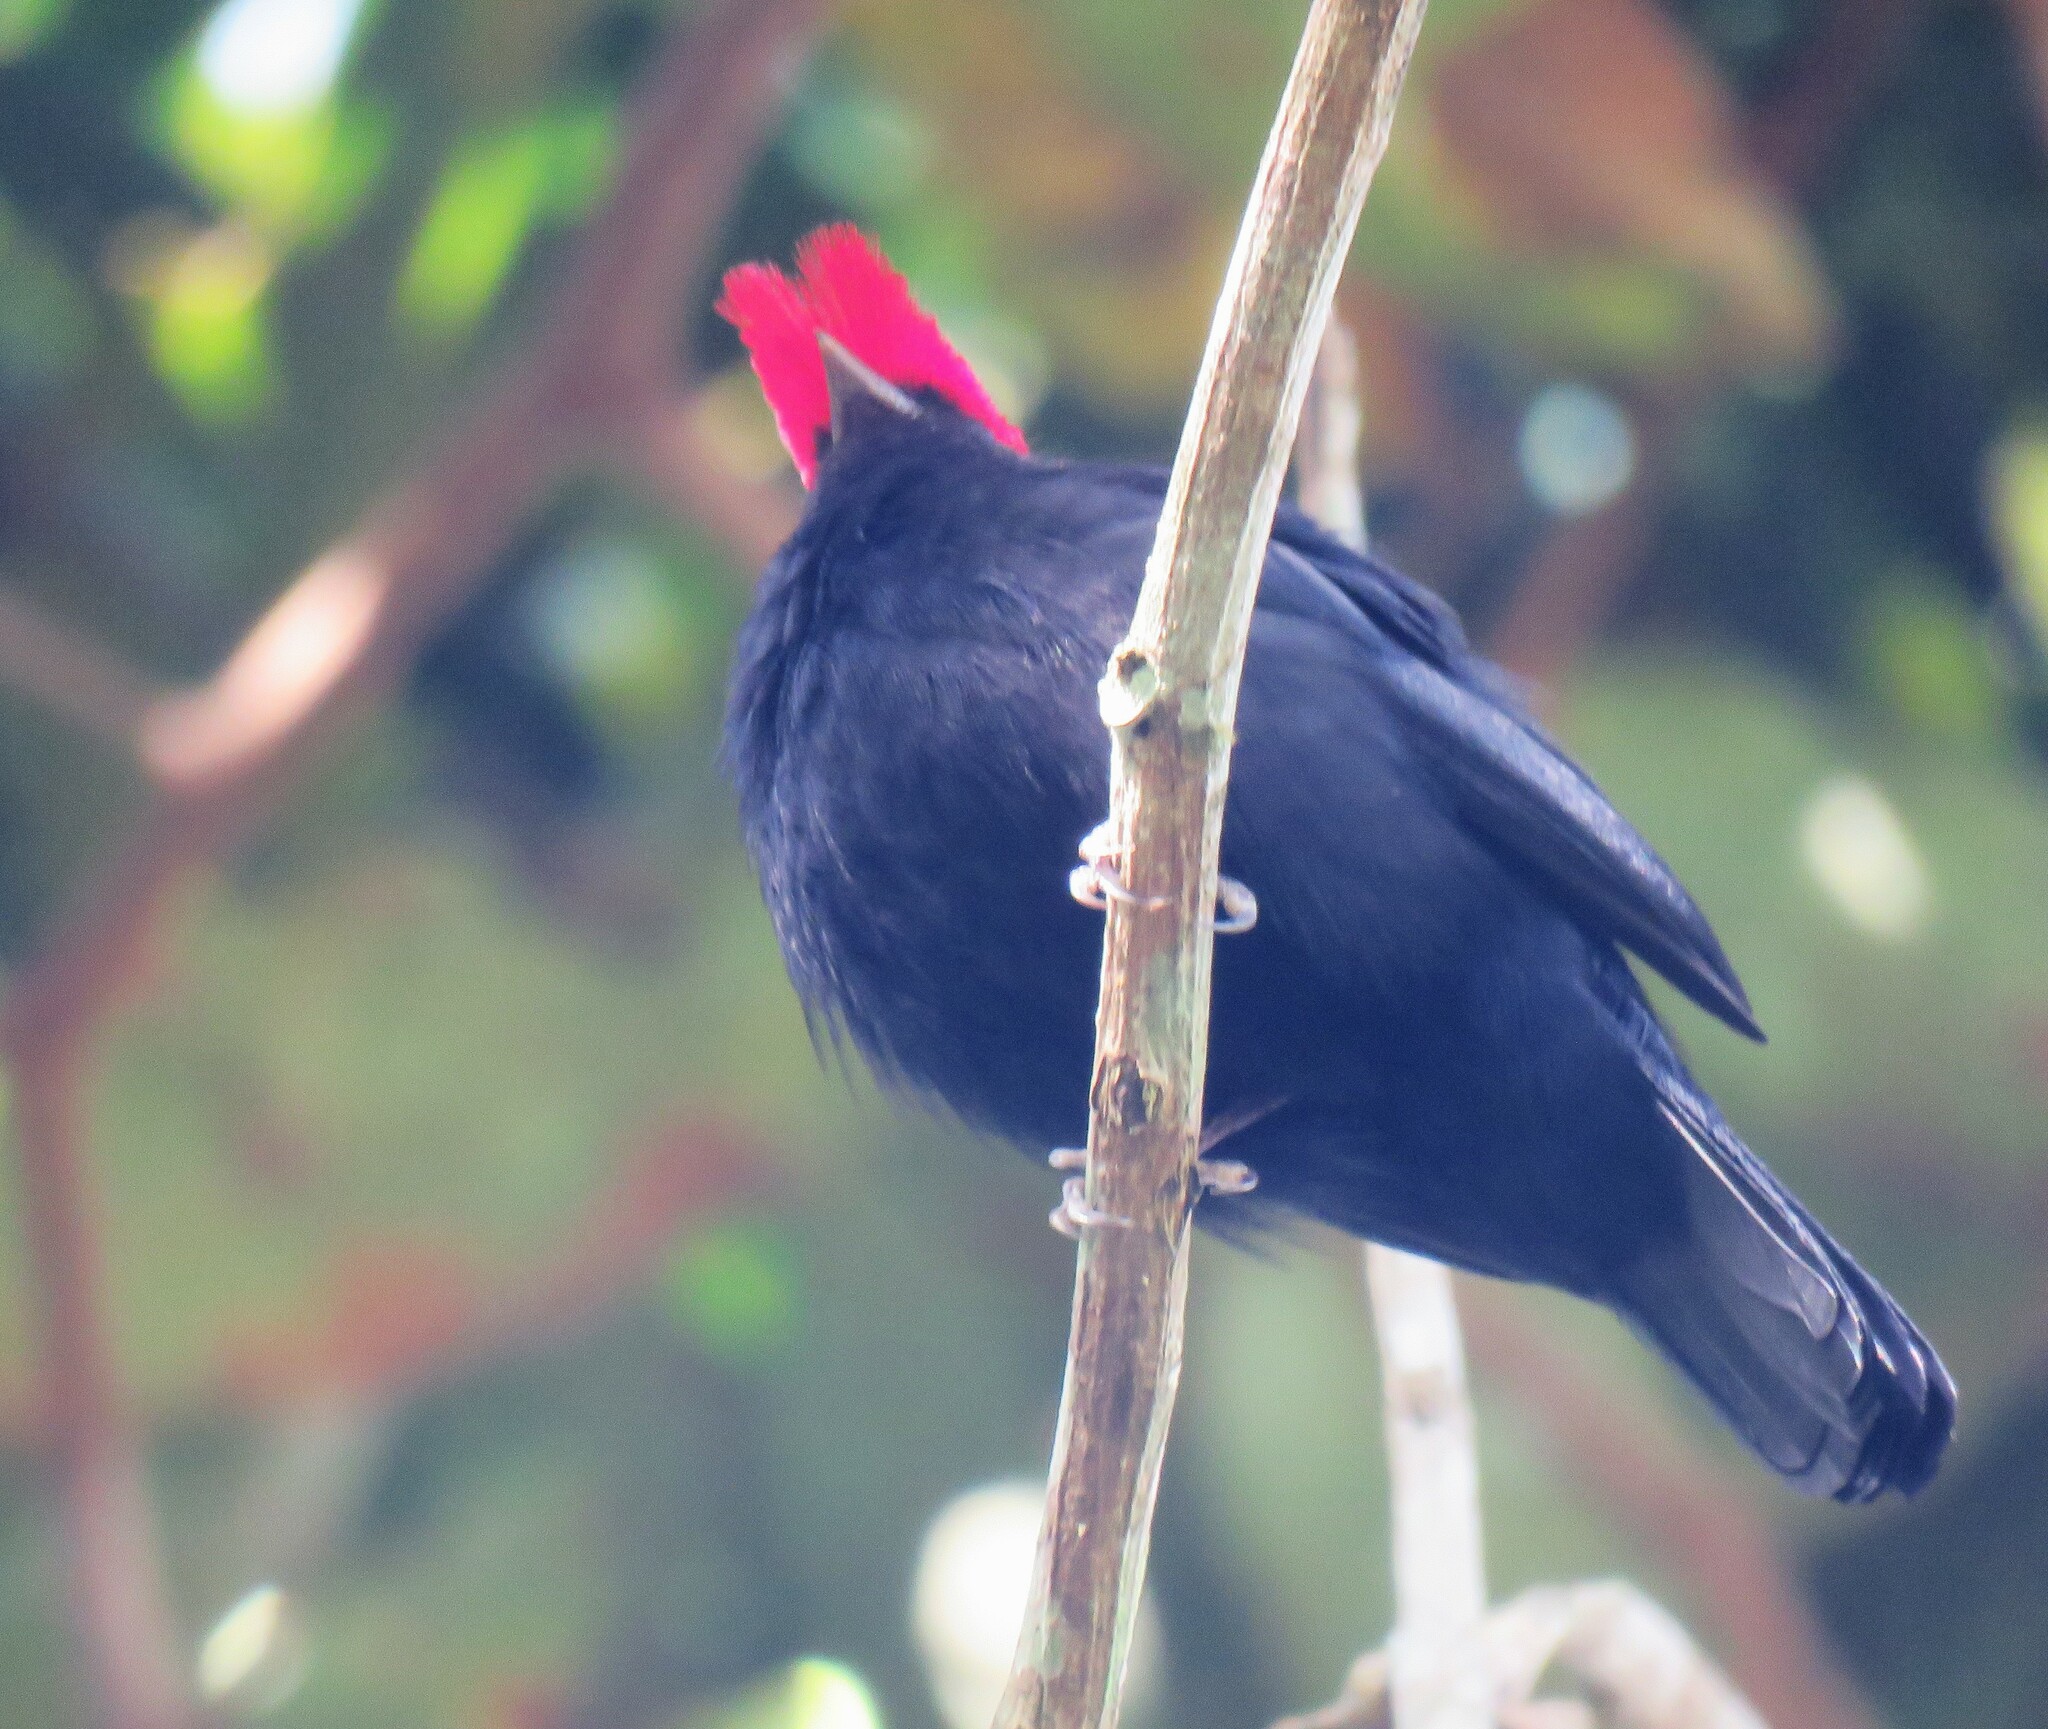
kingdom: Animalia
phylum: Chordata
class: Aves
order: Passeriformes
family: Pipridae
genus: Antilophia
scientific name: Antilophia galeata
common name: Helmeted manakin
